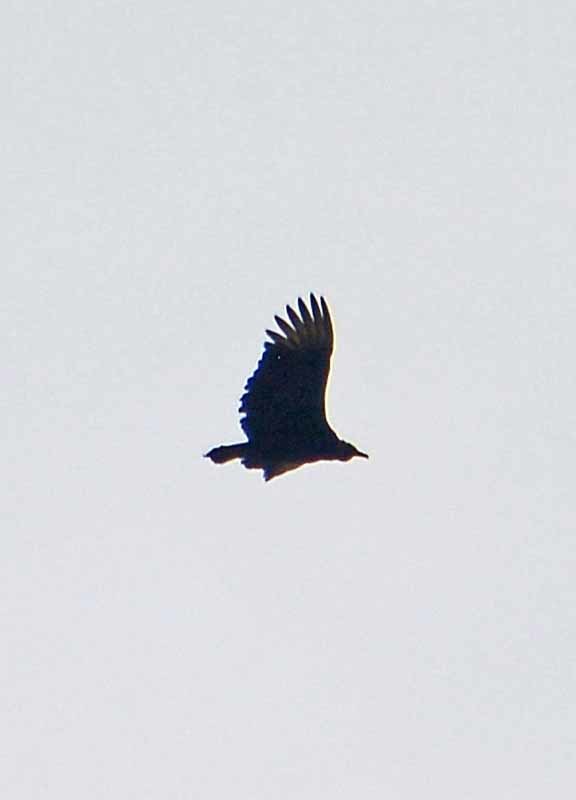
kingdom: Animalia
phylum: Chordata
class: Aves
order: Accipitriformes
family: Cathartidae
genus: Coragyps
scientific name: Coragyps atratus
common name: Black vulture
